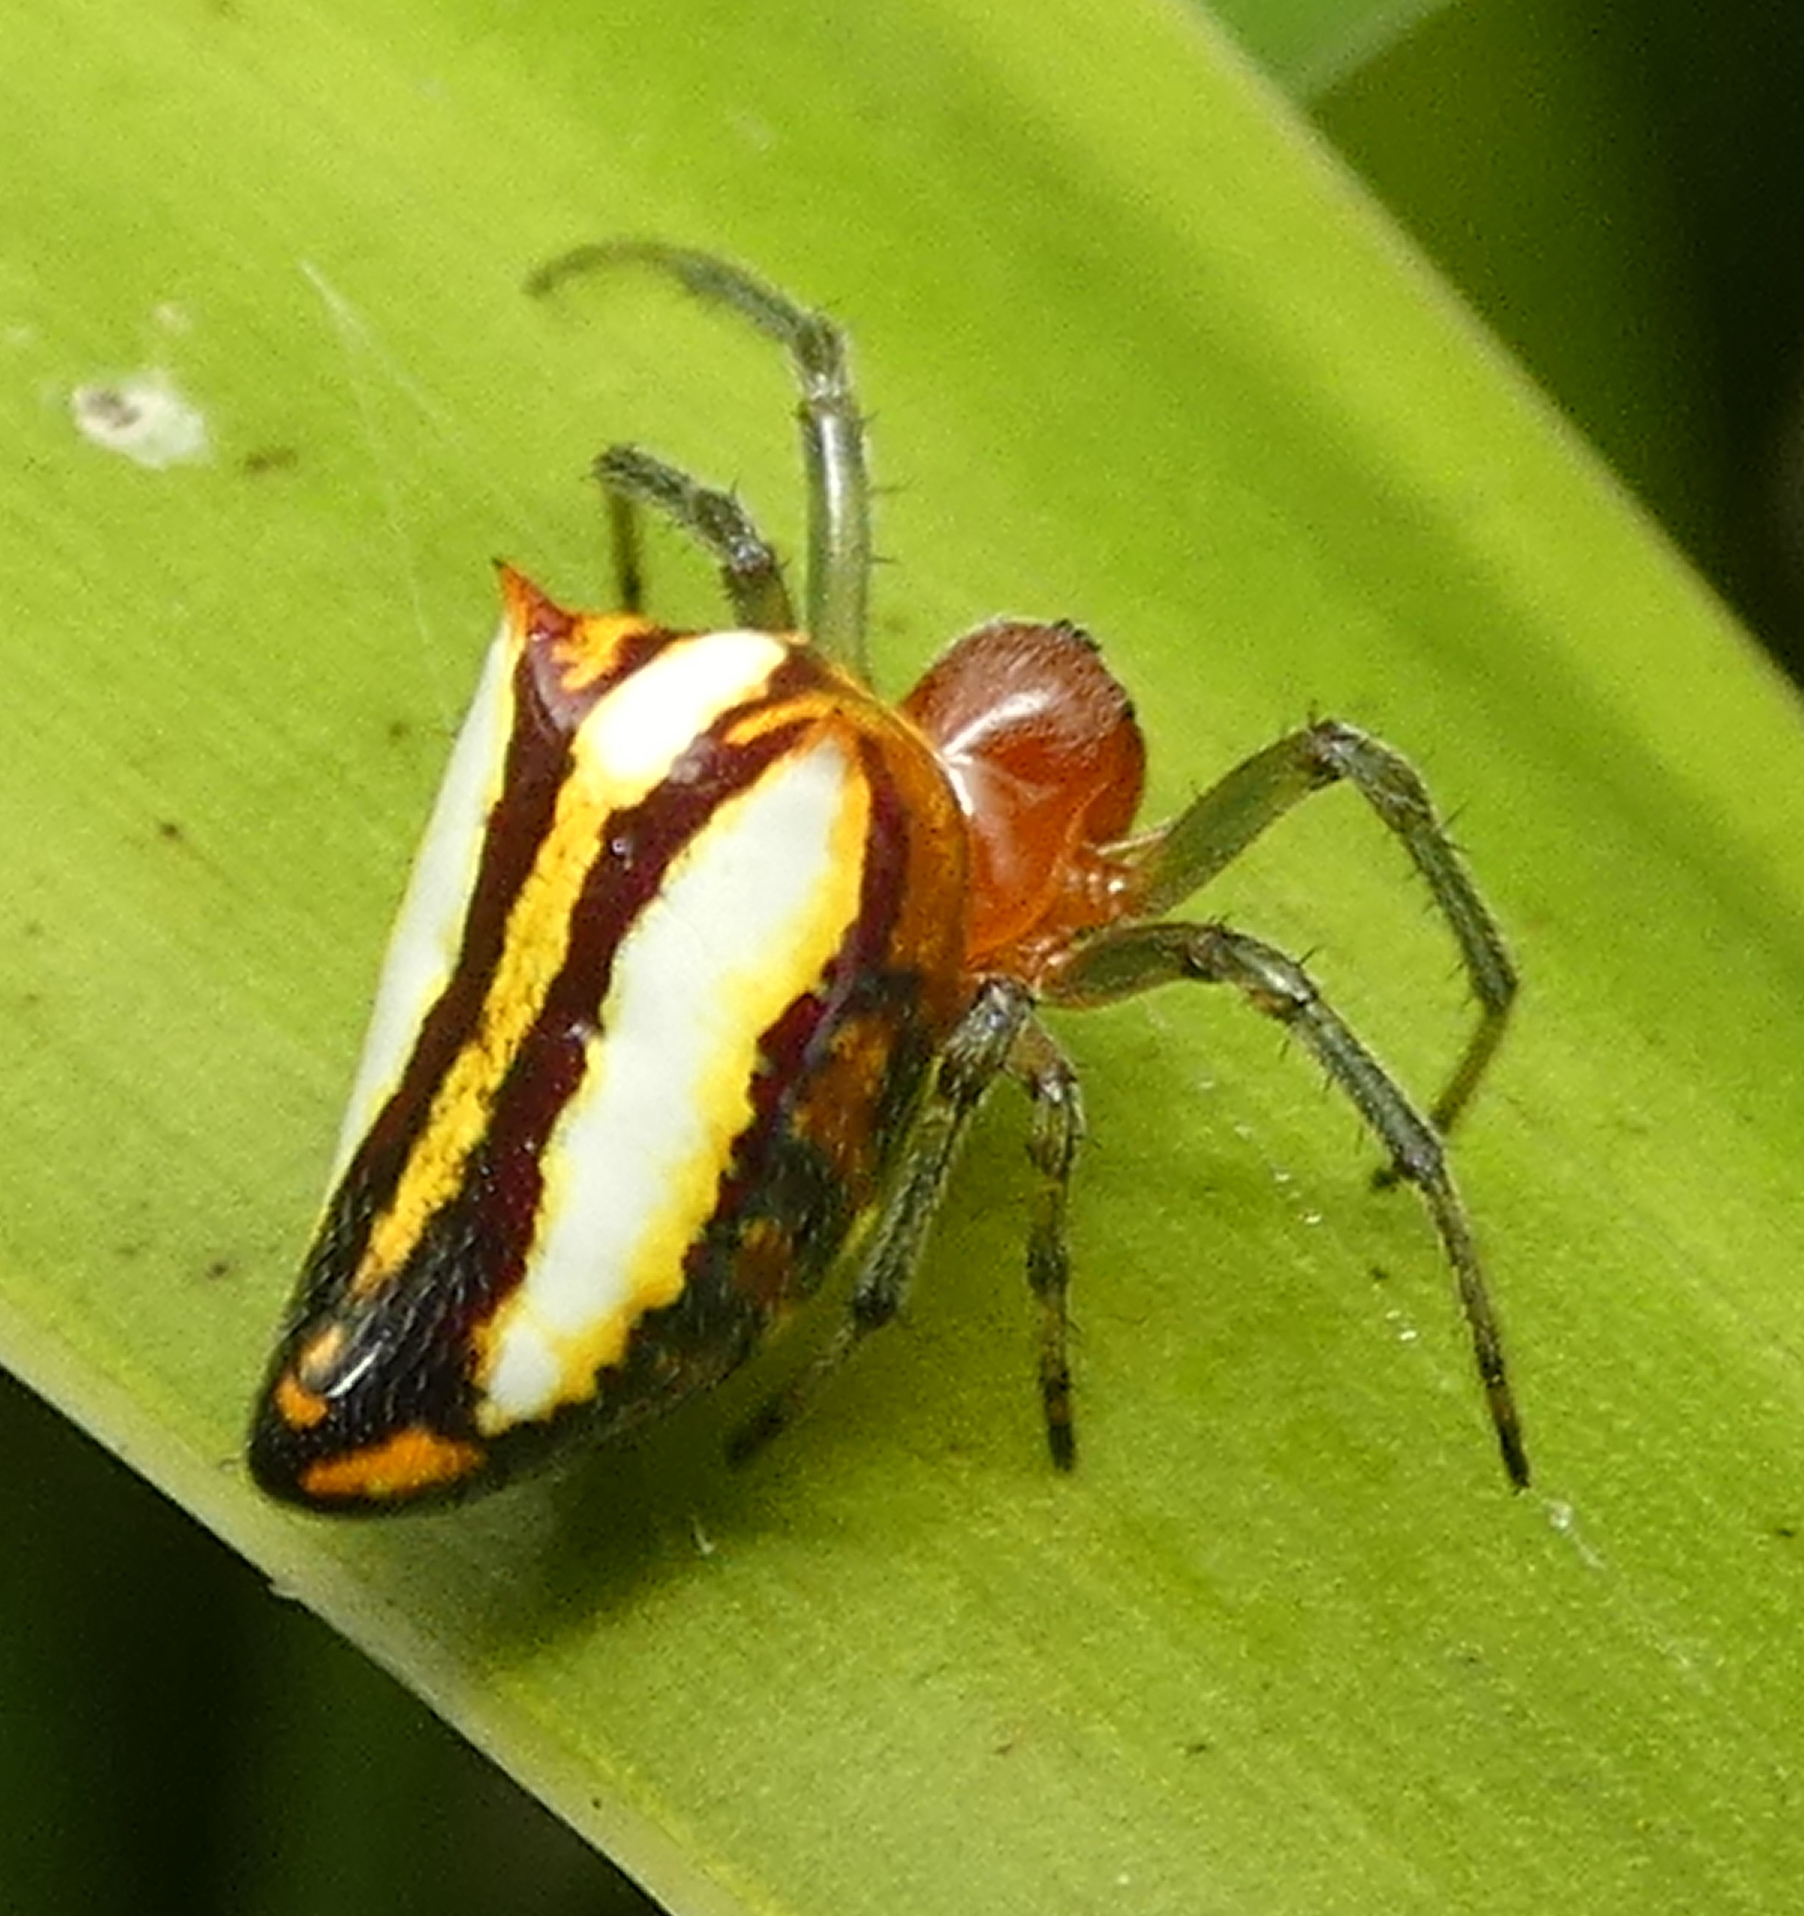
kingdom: Animalia
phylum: Arthropoda
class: Arachnida
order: Araneae
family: Araneidae
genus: Alpaida
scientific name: Alpaida bicornuta
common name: Orb weavers
